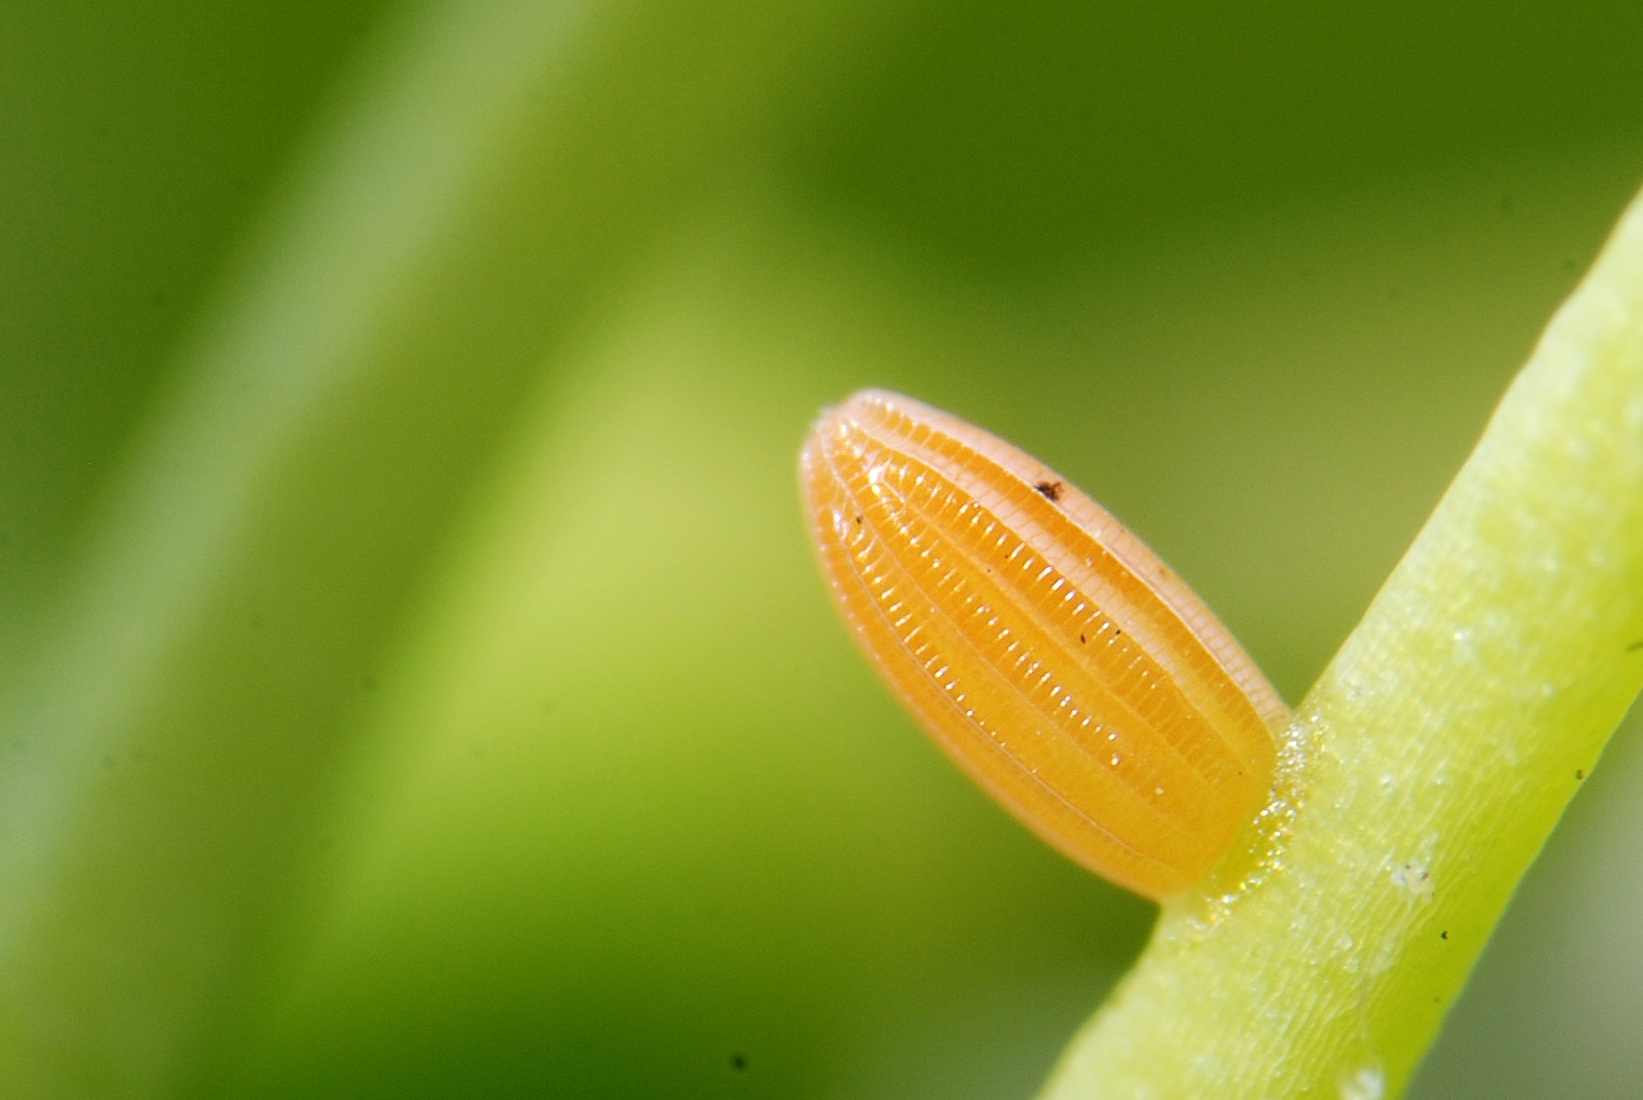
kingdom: Animalia
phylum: Arthropoda
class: Insecta
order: Lepidoptera
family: Pieridae
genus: Anthocharis
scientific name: Anthocharis cardamines
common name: Orange-tip
